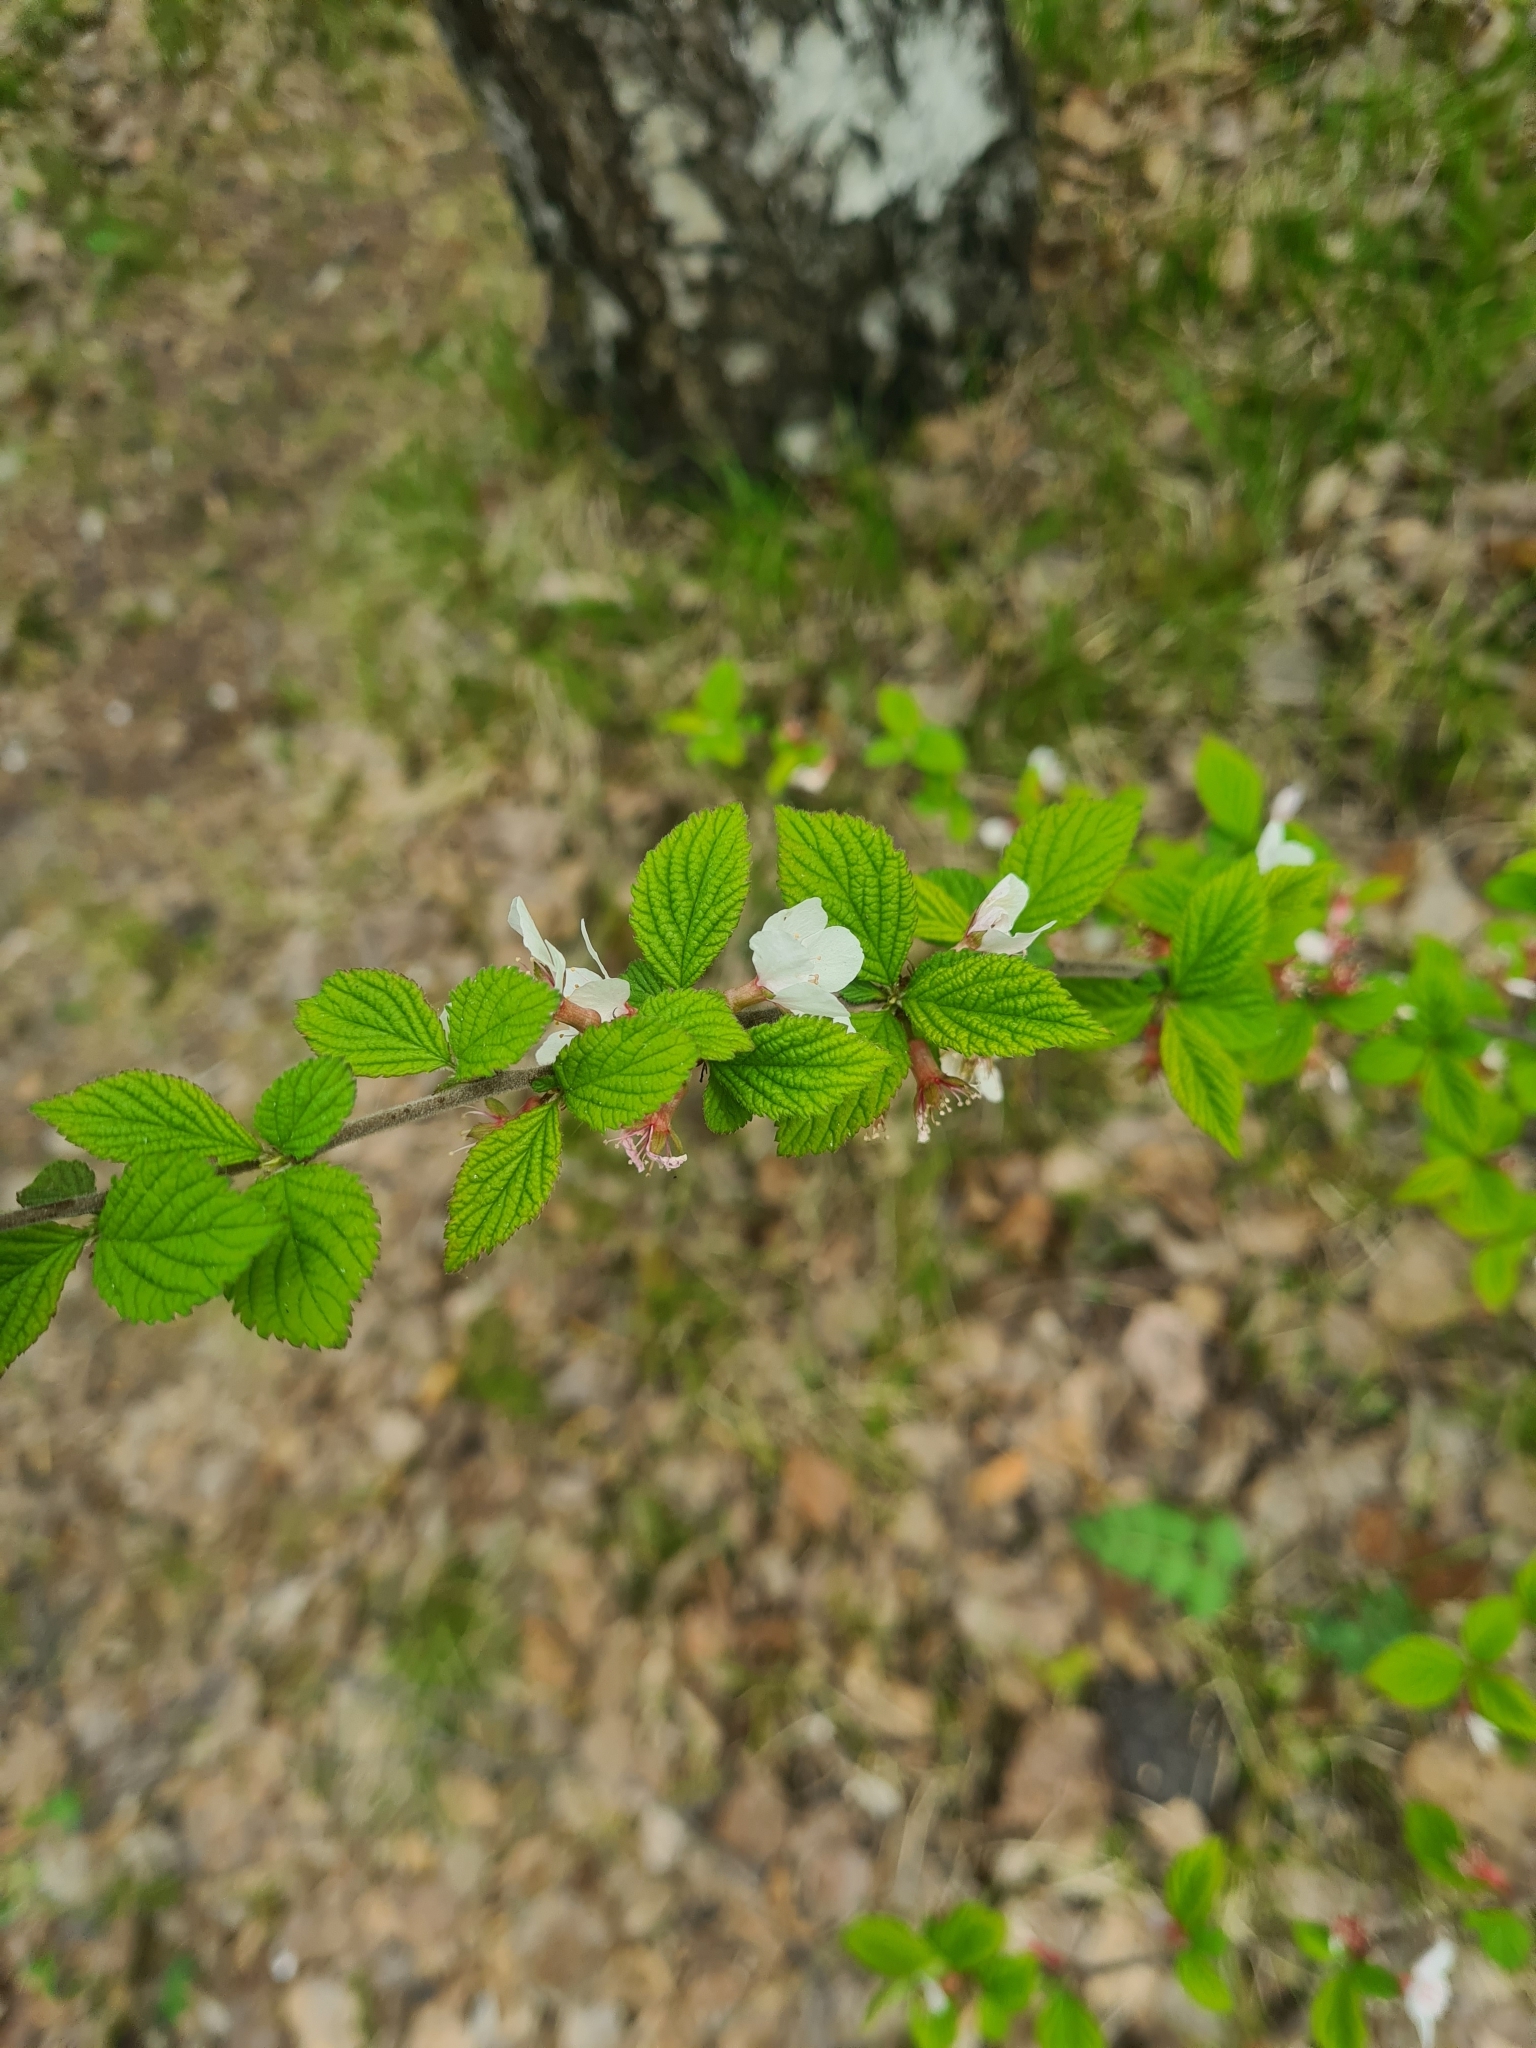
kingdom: Plantae
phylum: Tracheophyta
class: Magnoliopsida
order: Rosales
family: Rosaceae
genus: Prunus
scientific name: Prunus tomentosa
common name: Nanking cherry
